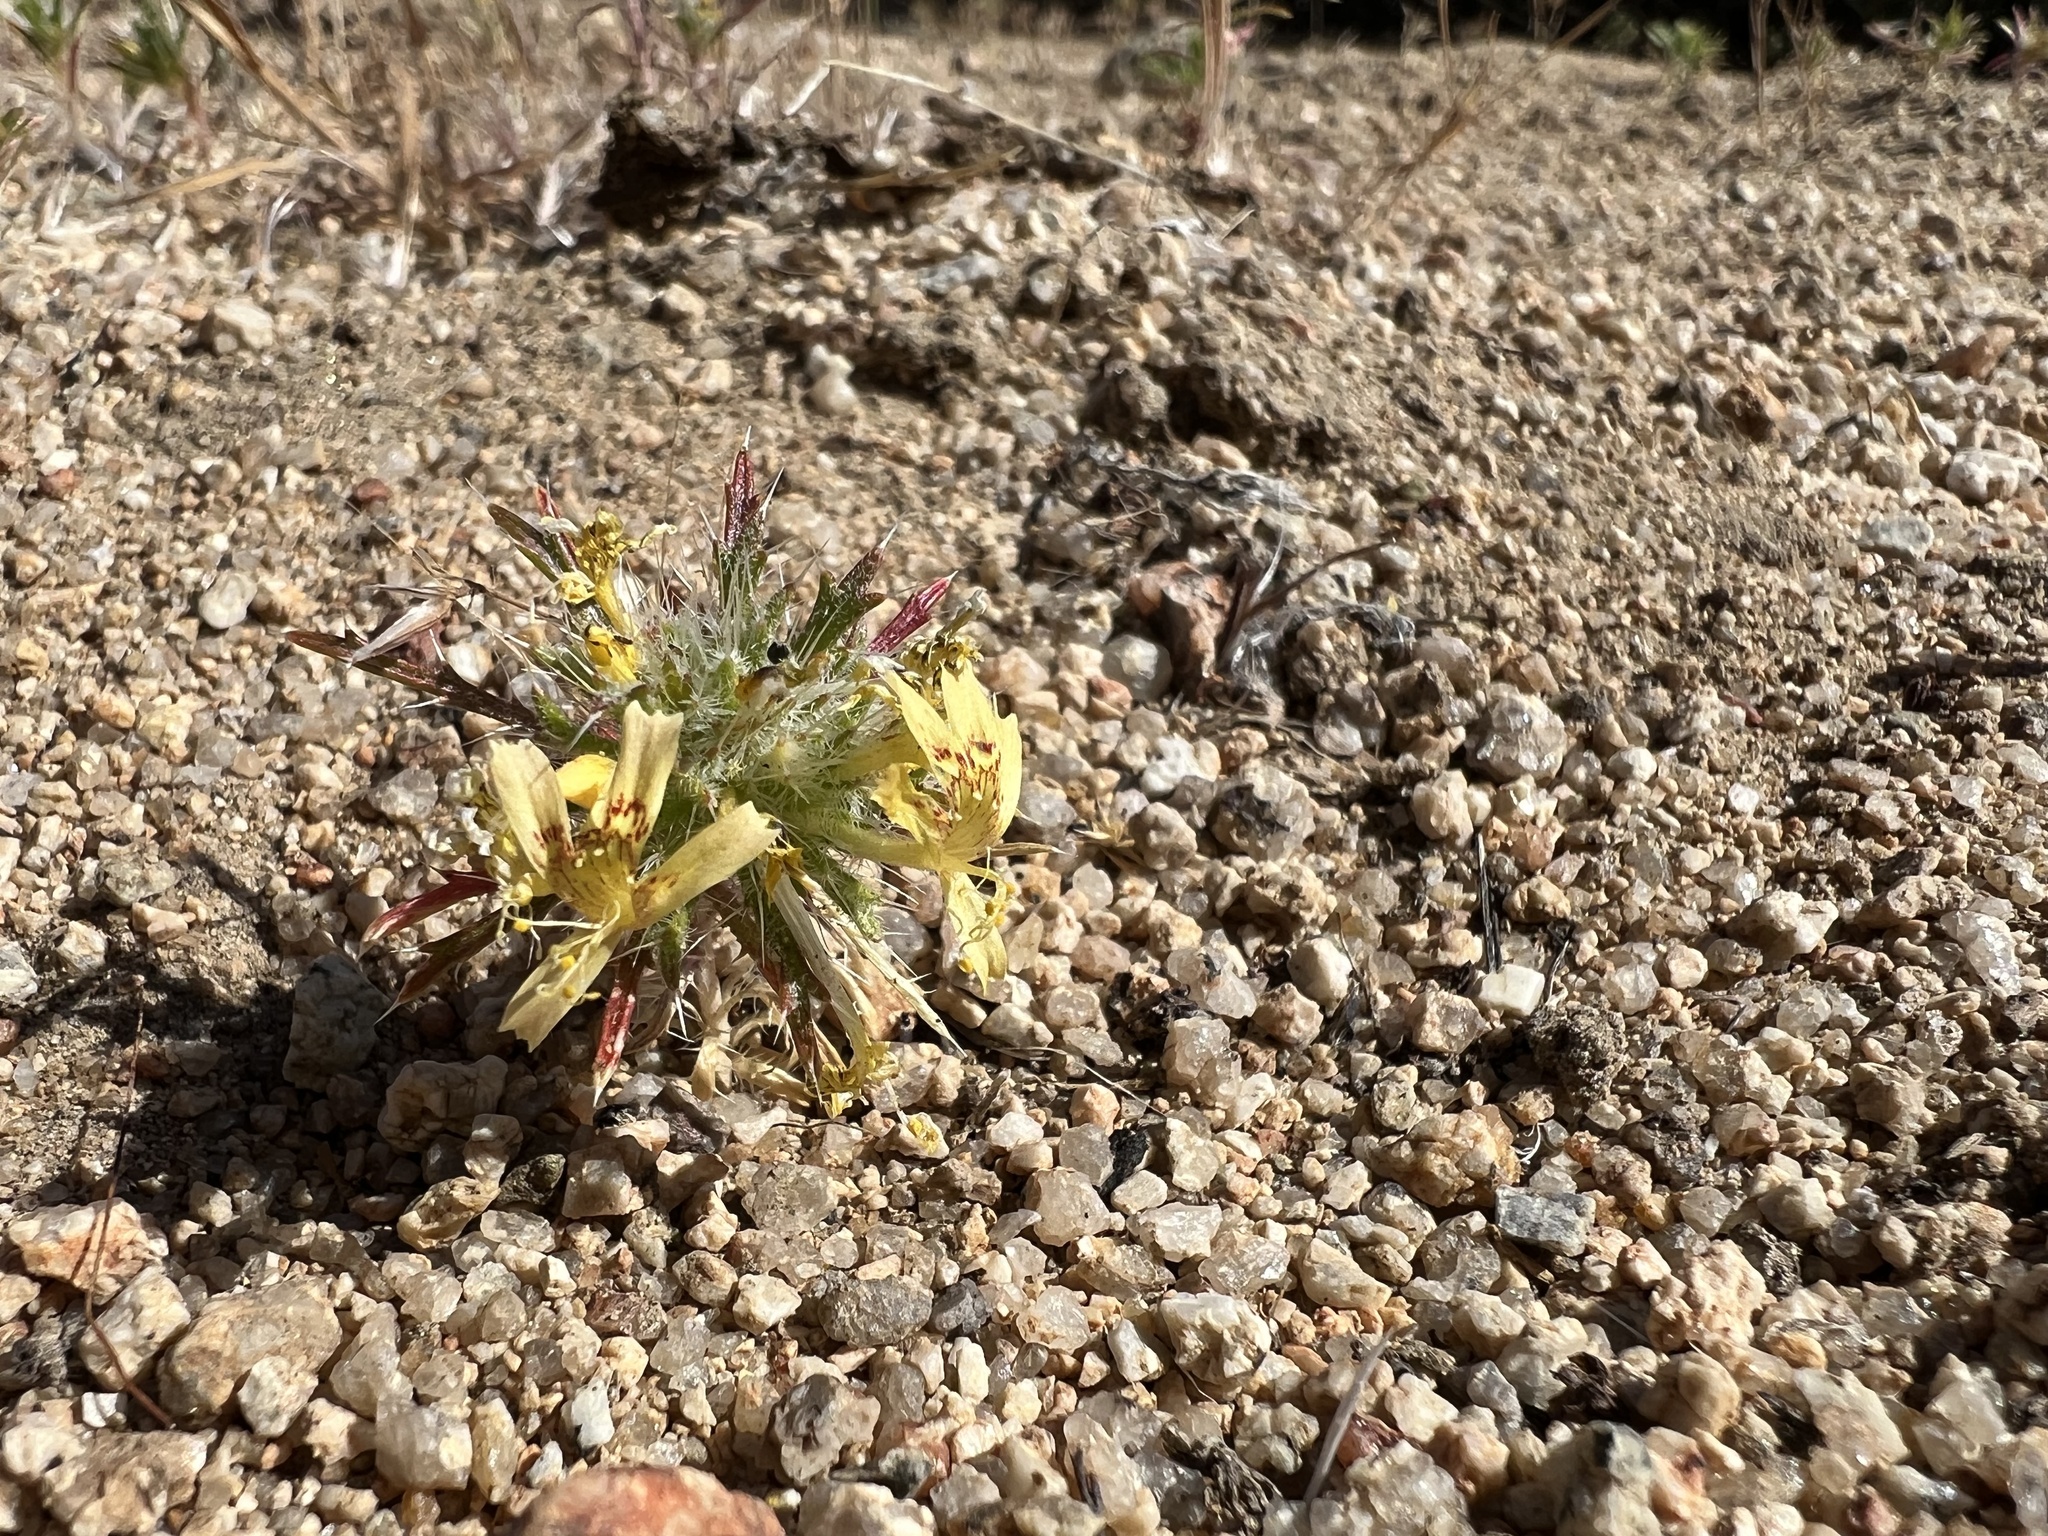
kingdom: Plantae
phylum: Tracheophyta
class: Magnoliopsida
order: Ericales
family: Polemoniaceae
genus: Loeseliastrum
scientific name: Loeseliastrum matthewsii
